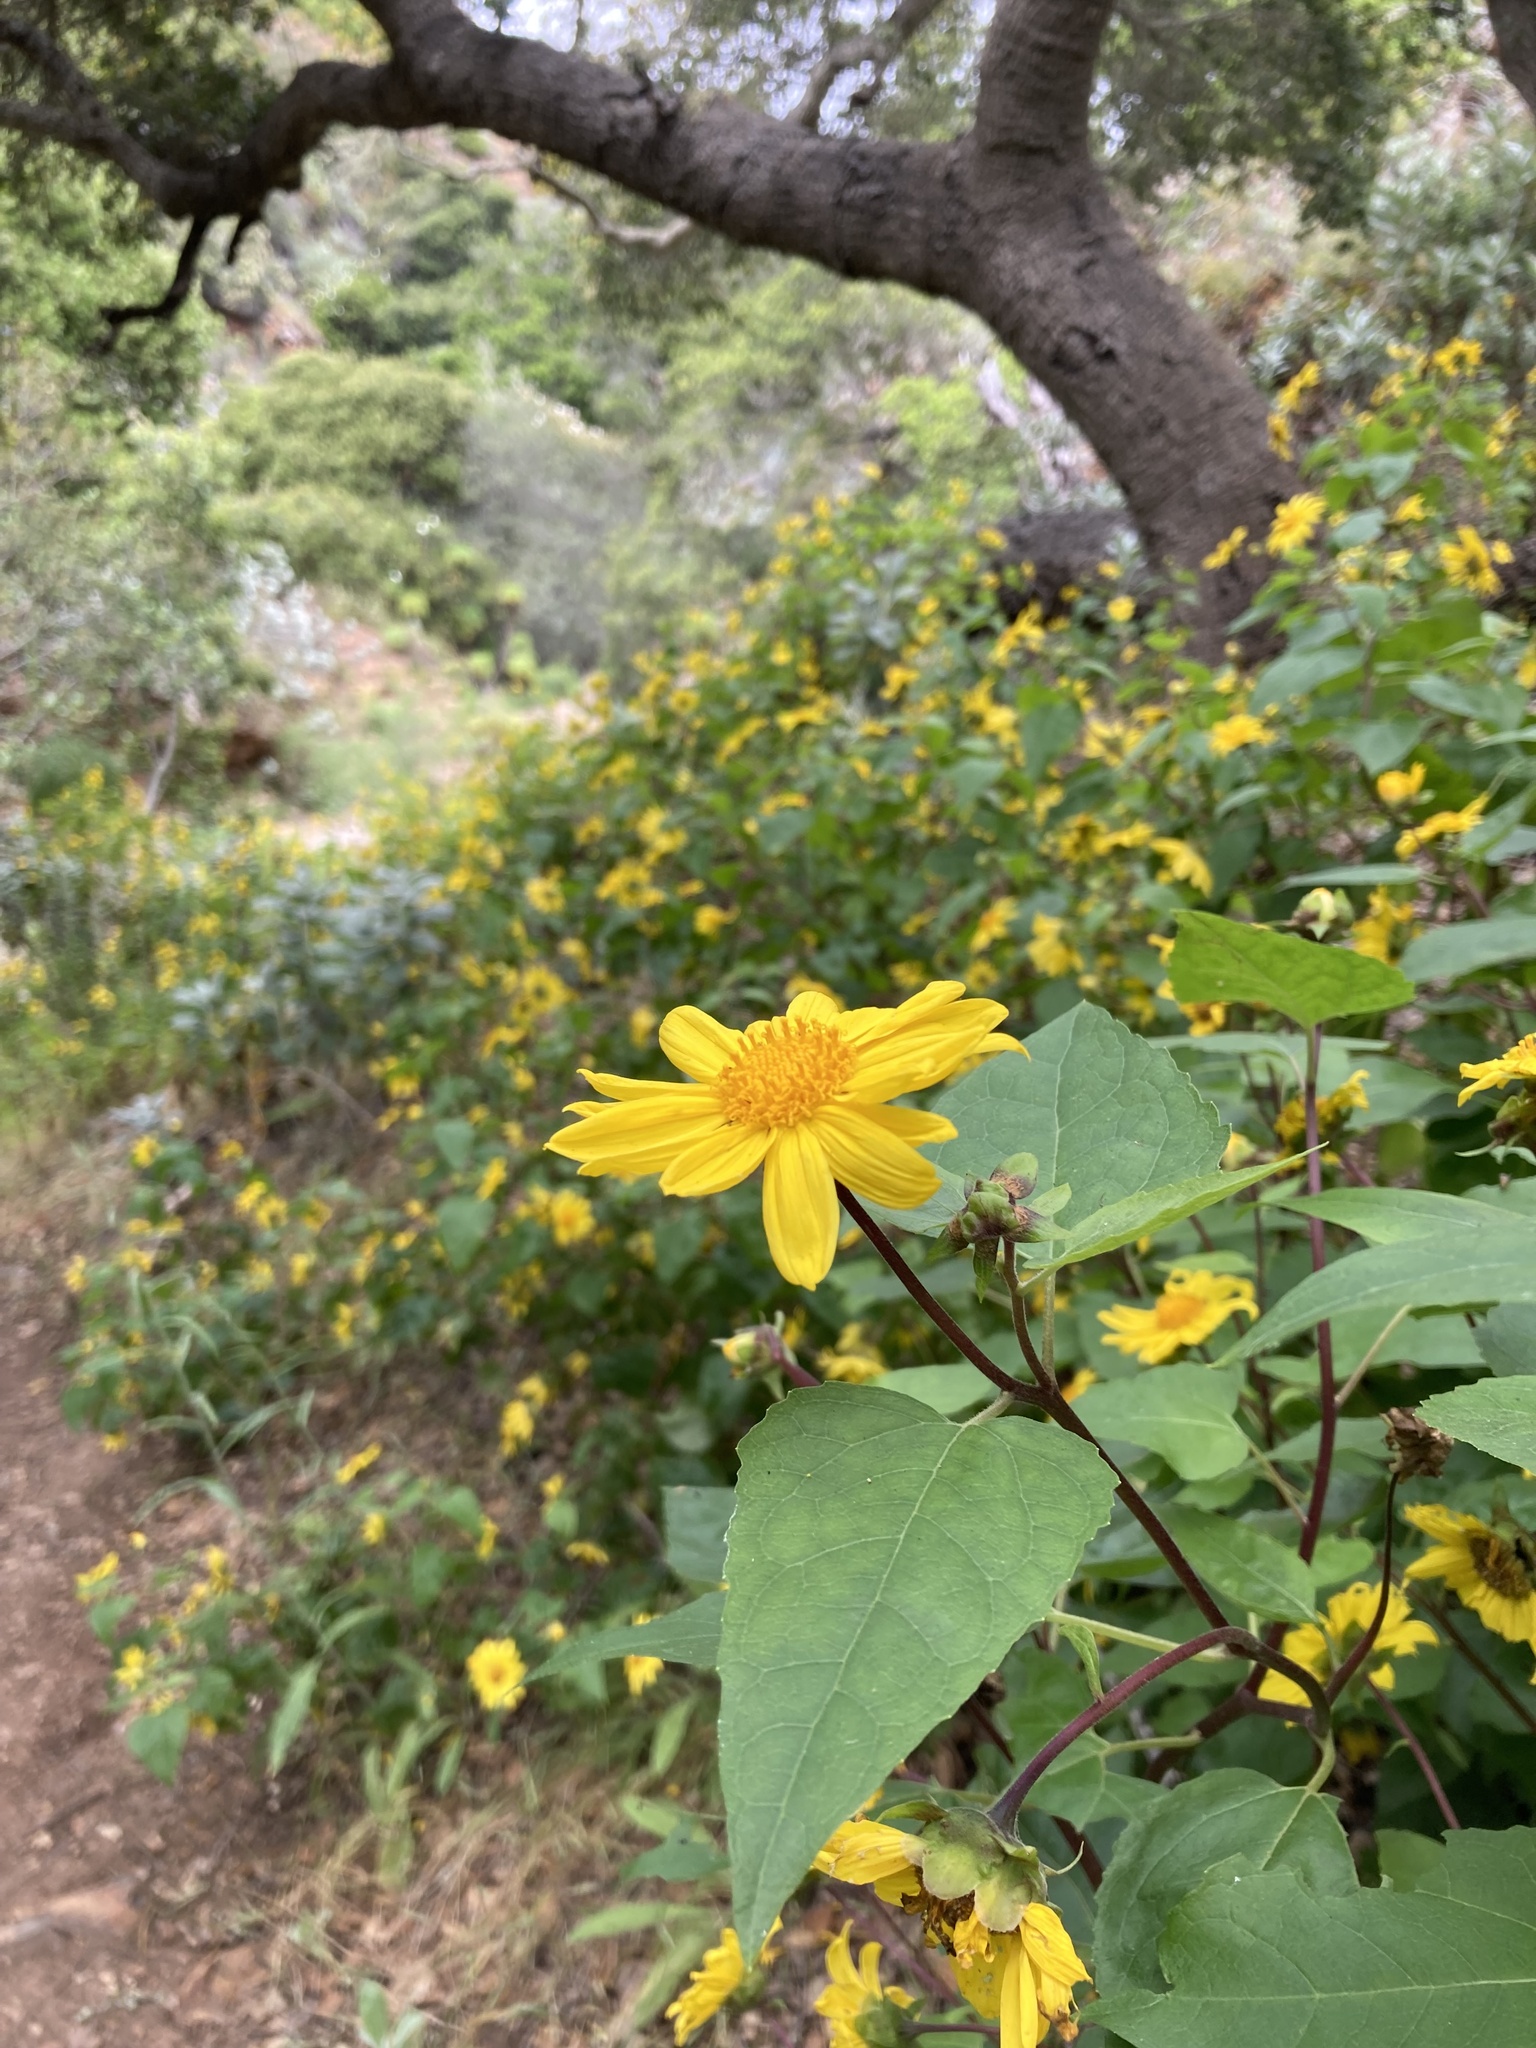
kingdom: Plantae
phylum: Tracheophyta
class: Magnoliopsida
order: Asterales
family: Asteraceae
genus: Venegasia
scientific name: Venegasia carpesioides
